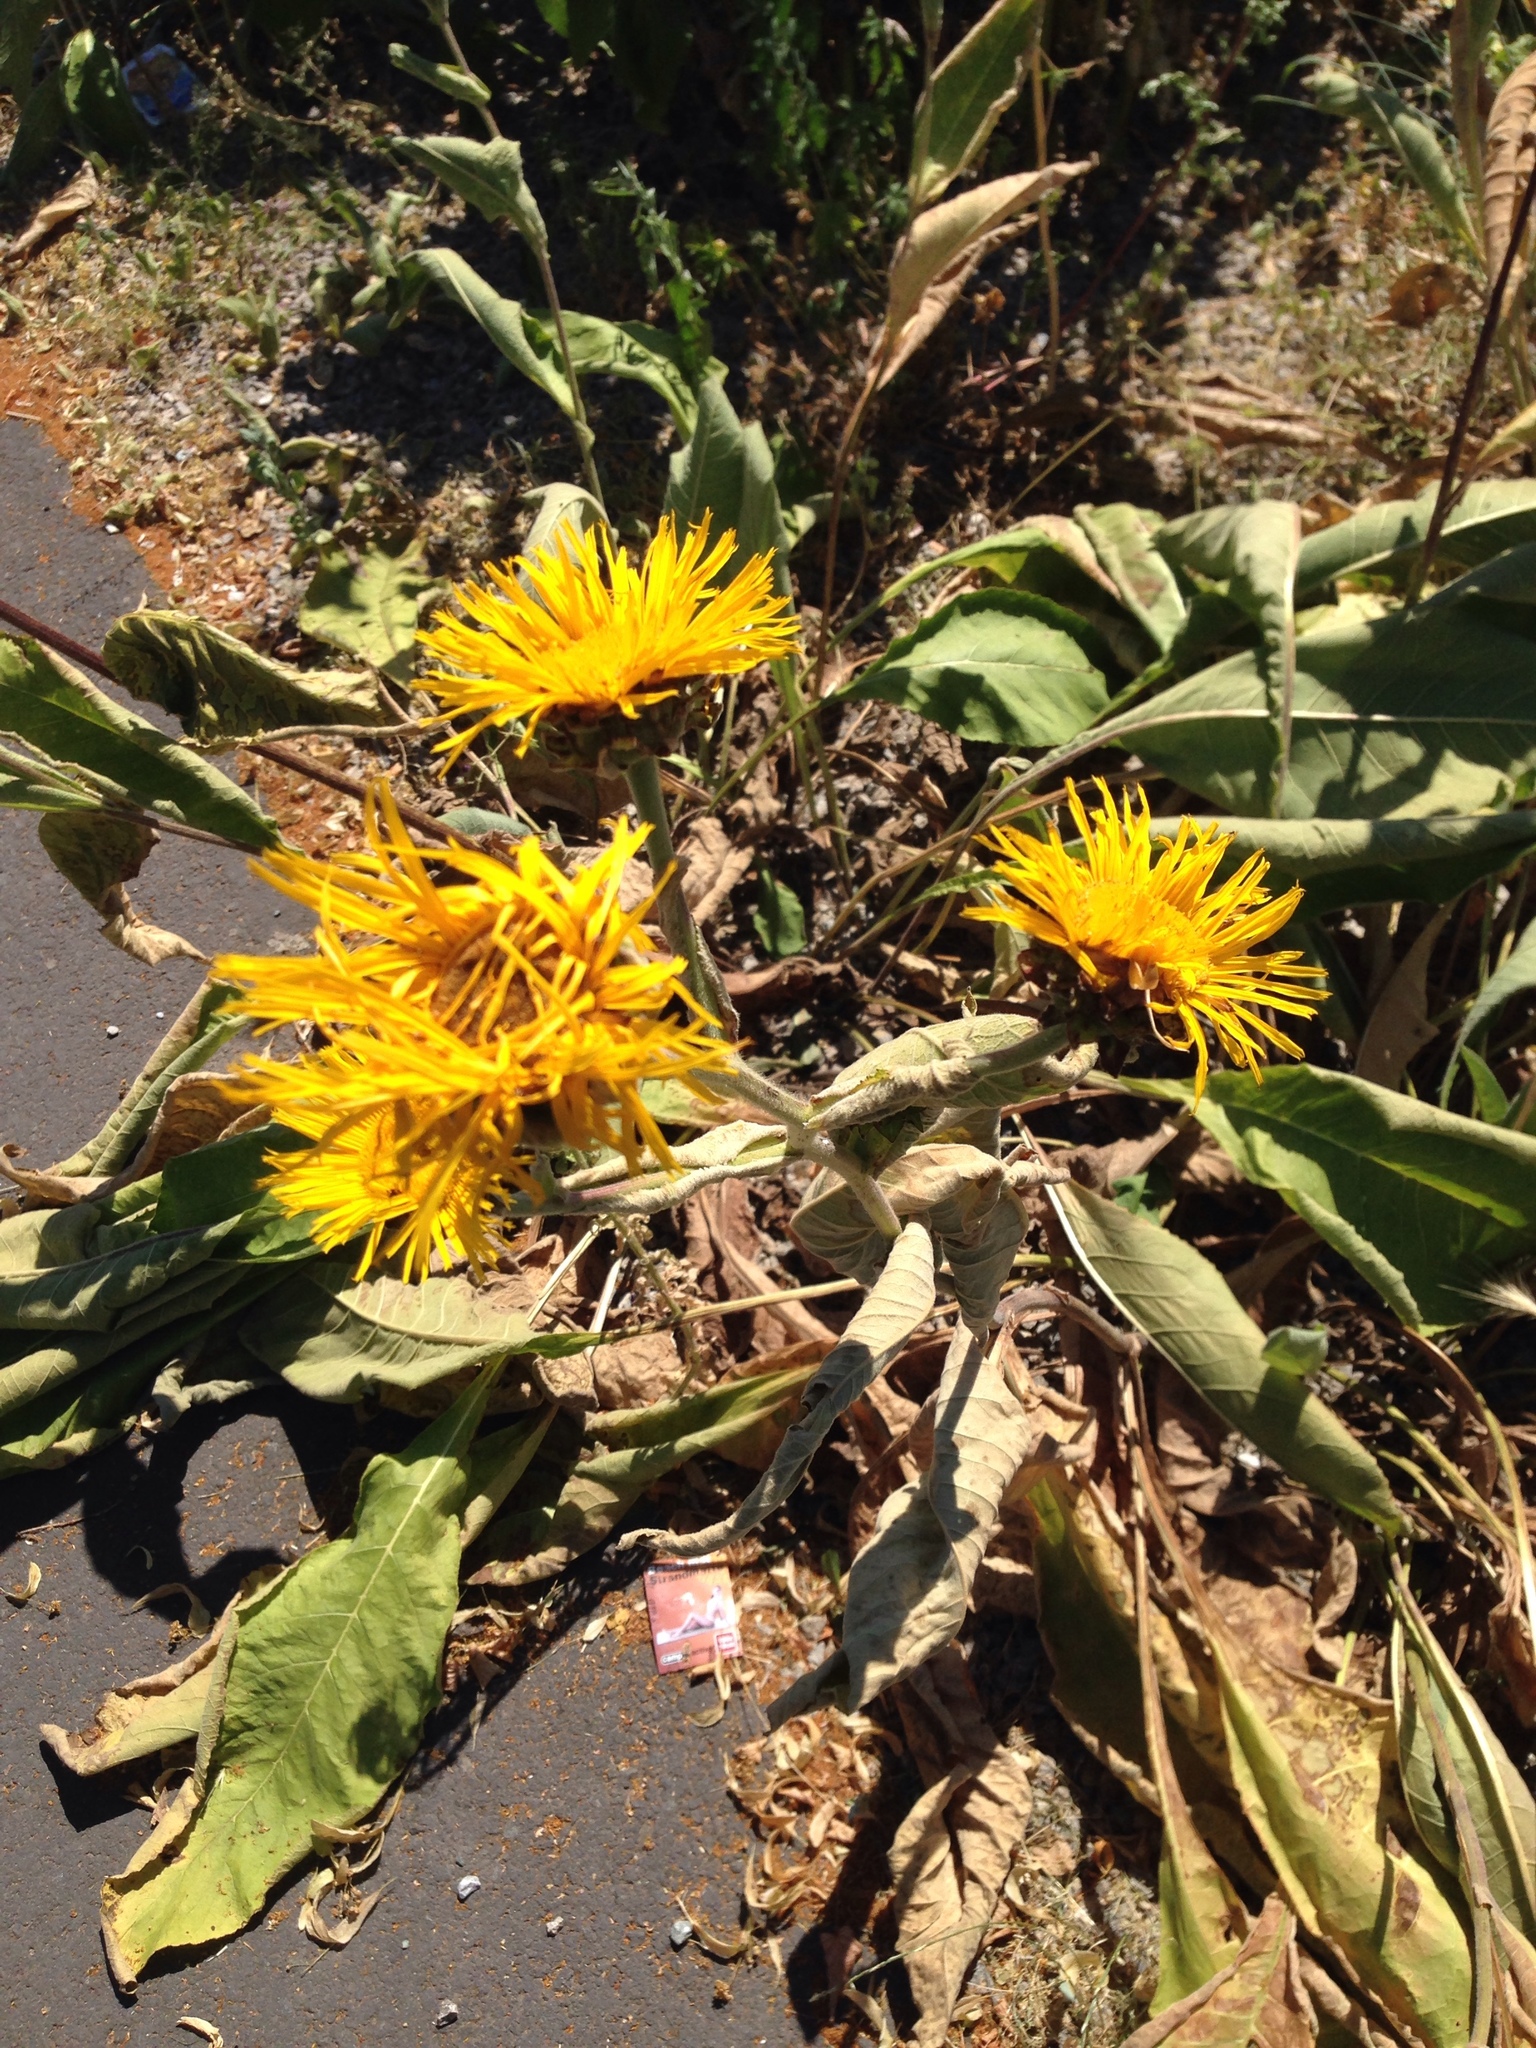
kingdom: Plantae
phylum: Tracheophyta
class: Magnoliopsida
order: Asterales
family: Asteraceae
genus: Inula
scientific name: Inula helenium
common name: Elecampane
